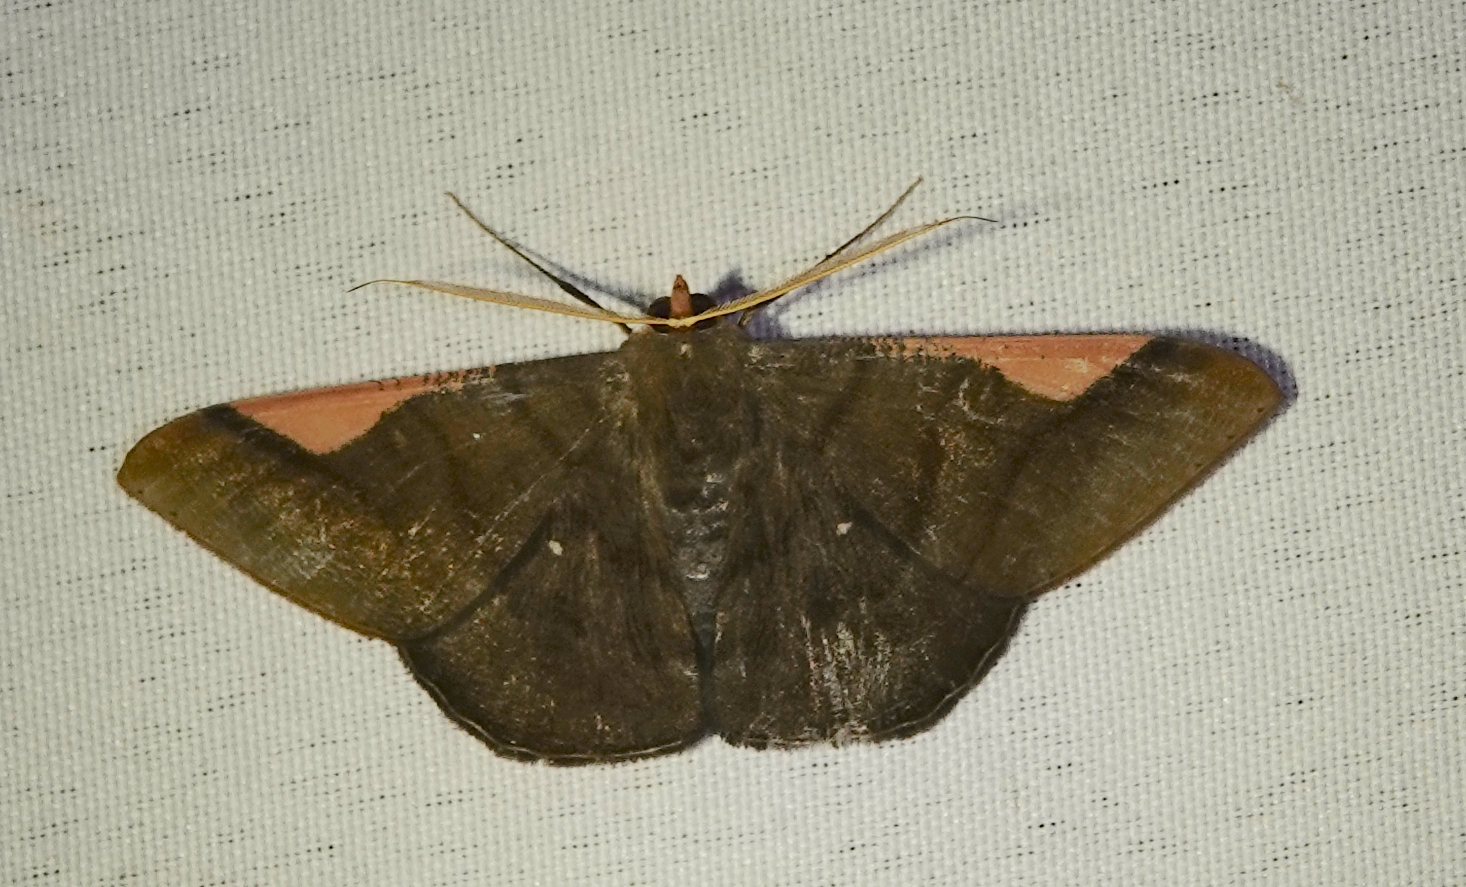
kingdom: Animalia
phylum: Arthropoda
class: Insecta
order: Lepidoptera
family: Geometridae
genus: Sphacelodes
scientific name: Sphacelodes vulneraria
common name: Looper moth
